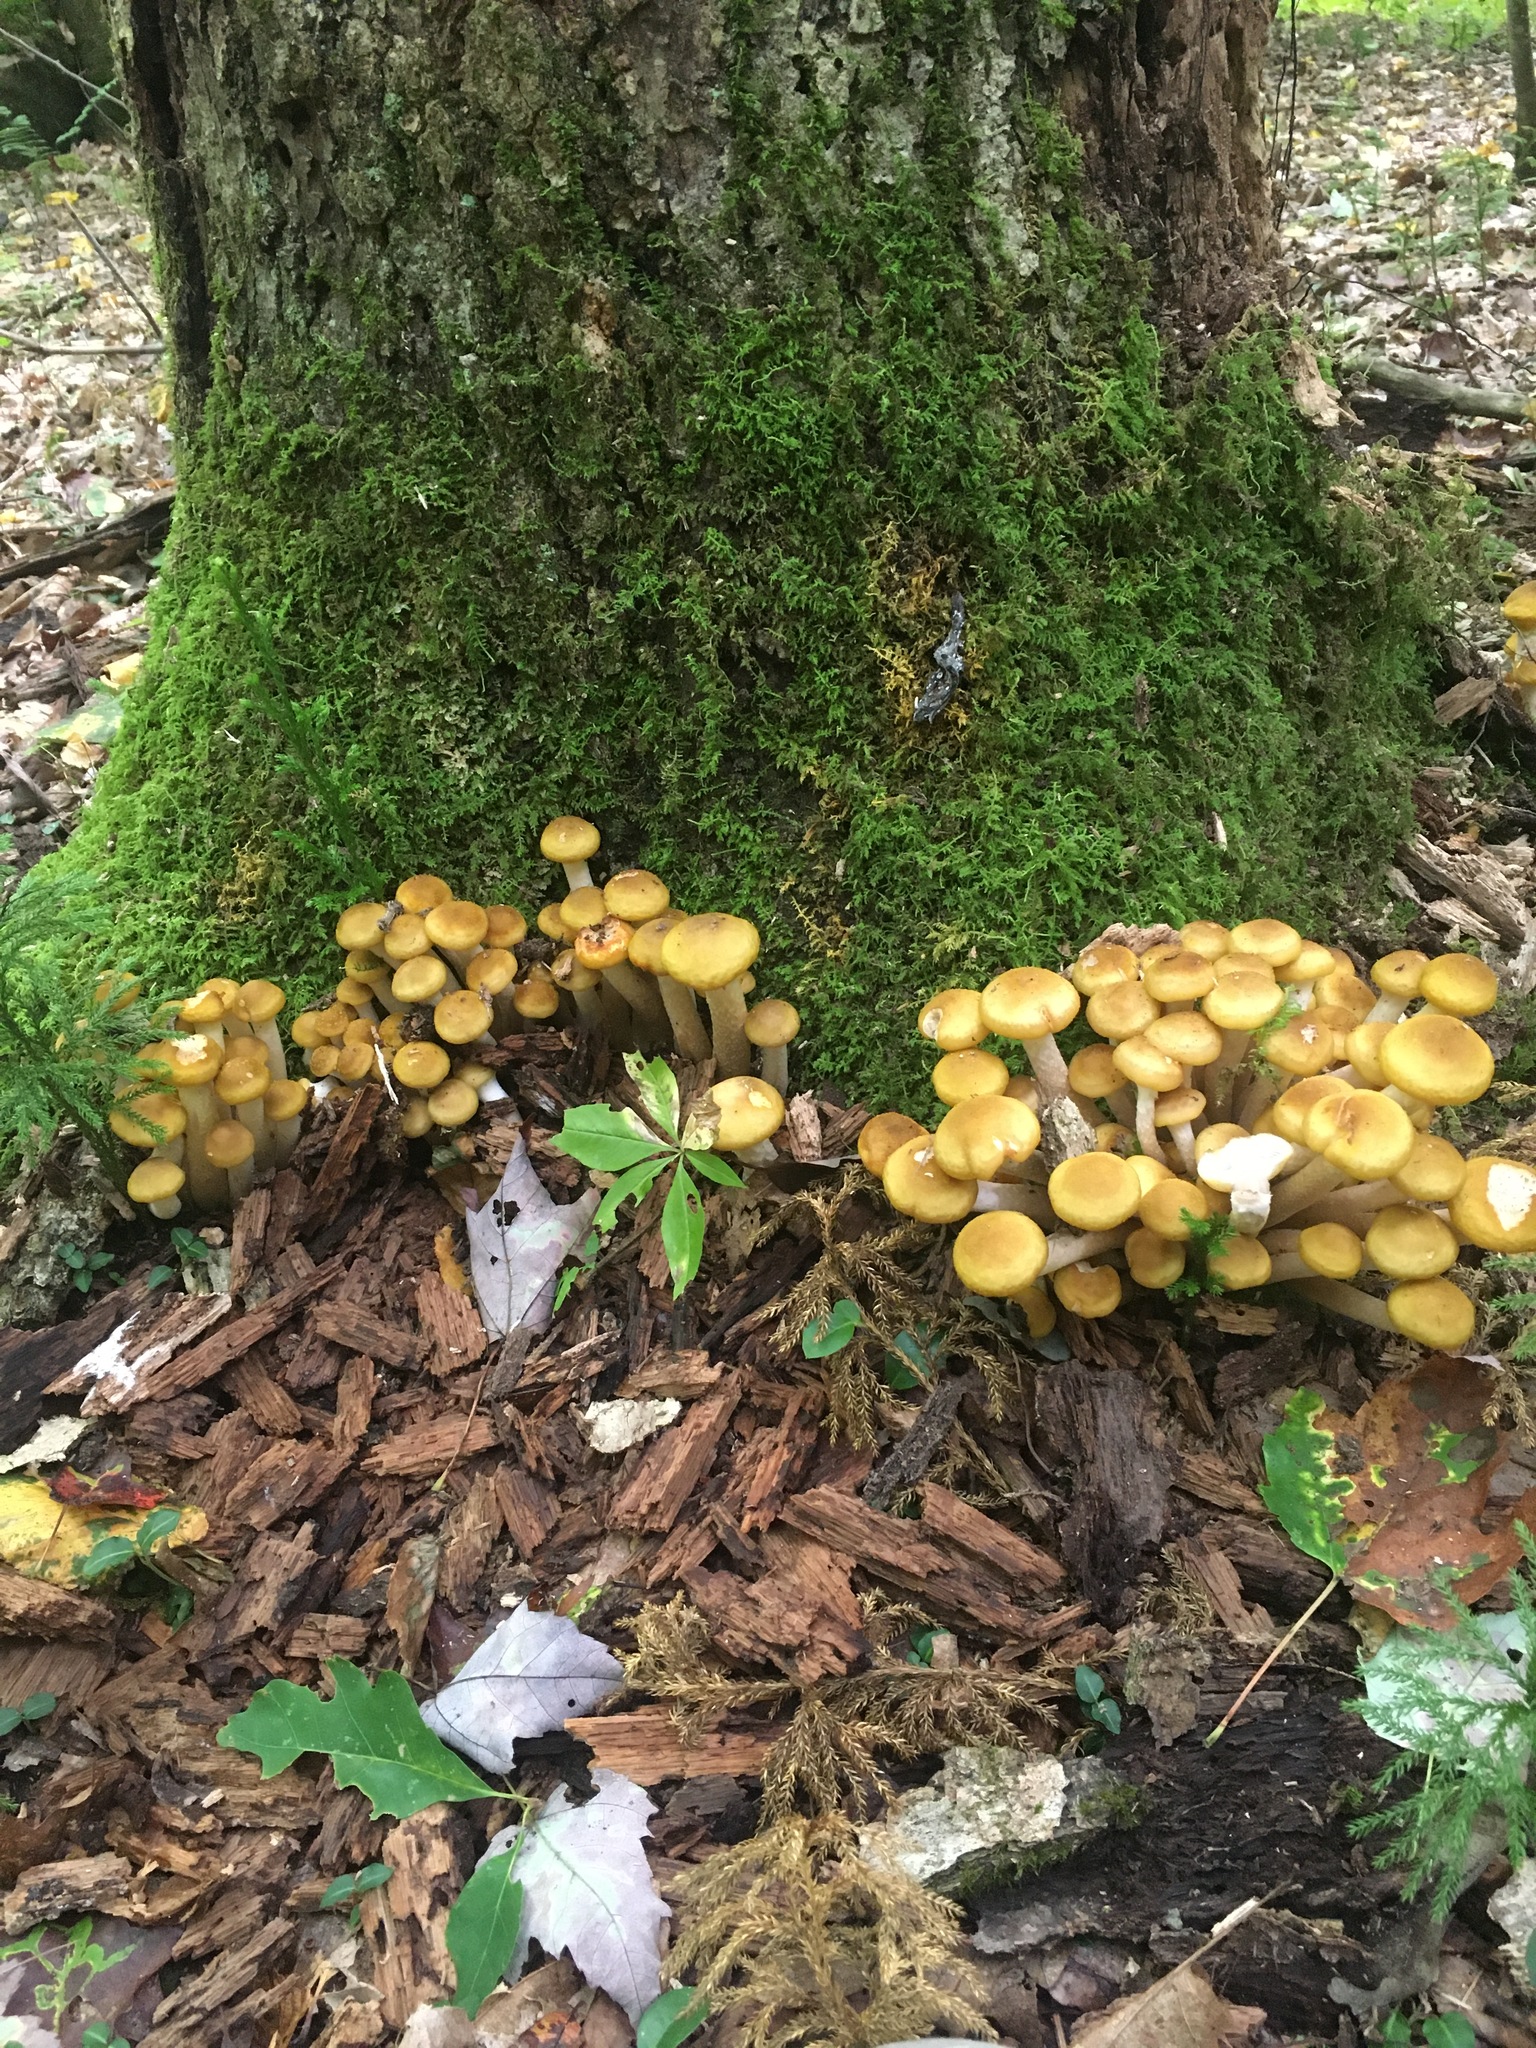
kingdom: Fungi
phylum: Basidiomycota
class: Agaricomycetes
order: Agaricales
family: Physalacriaceae
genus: Armillaria
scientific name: Armillaria mellea
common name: Honey fungus
